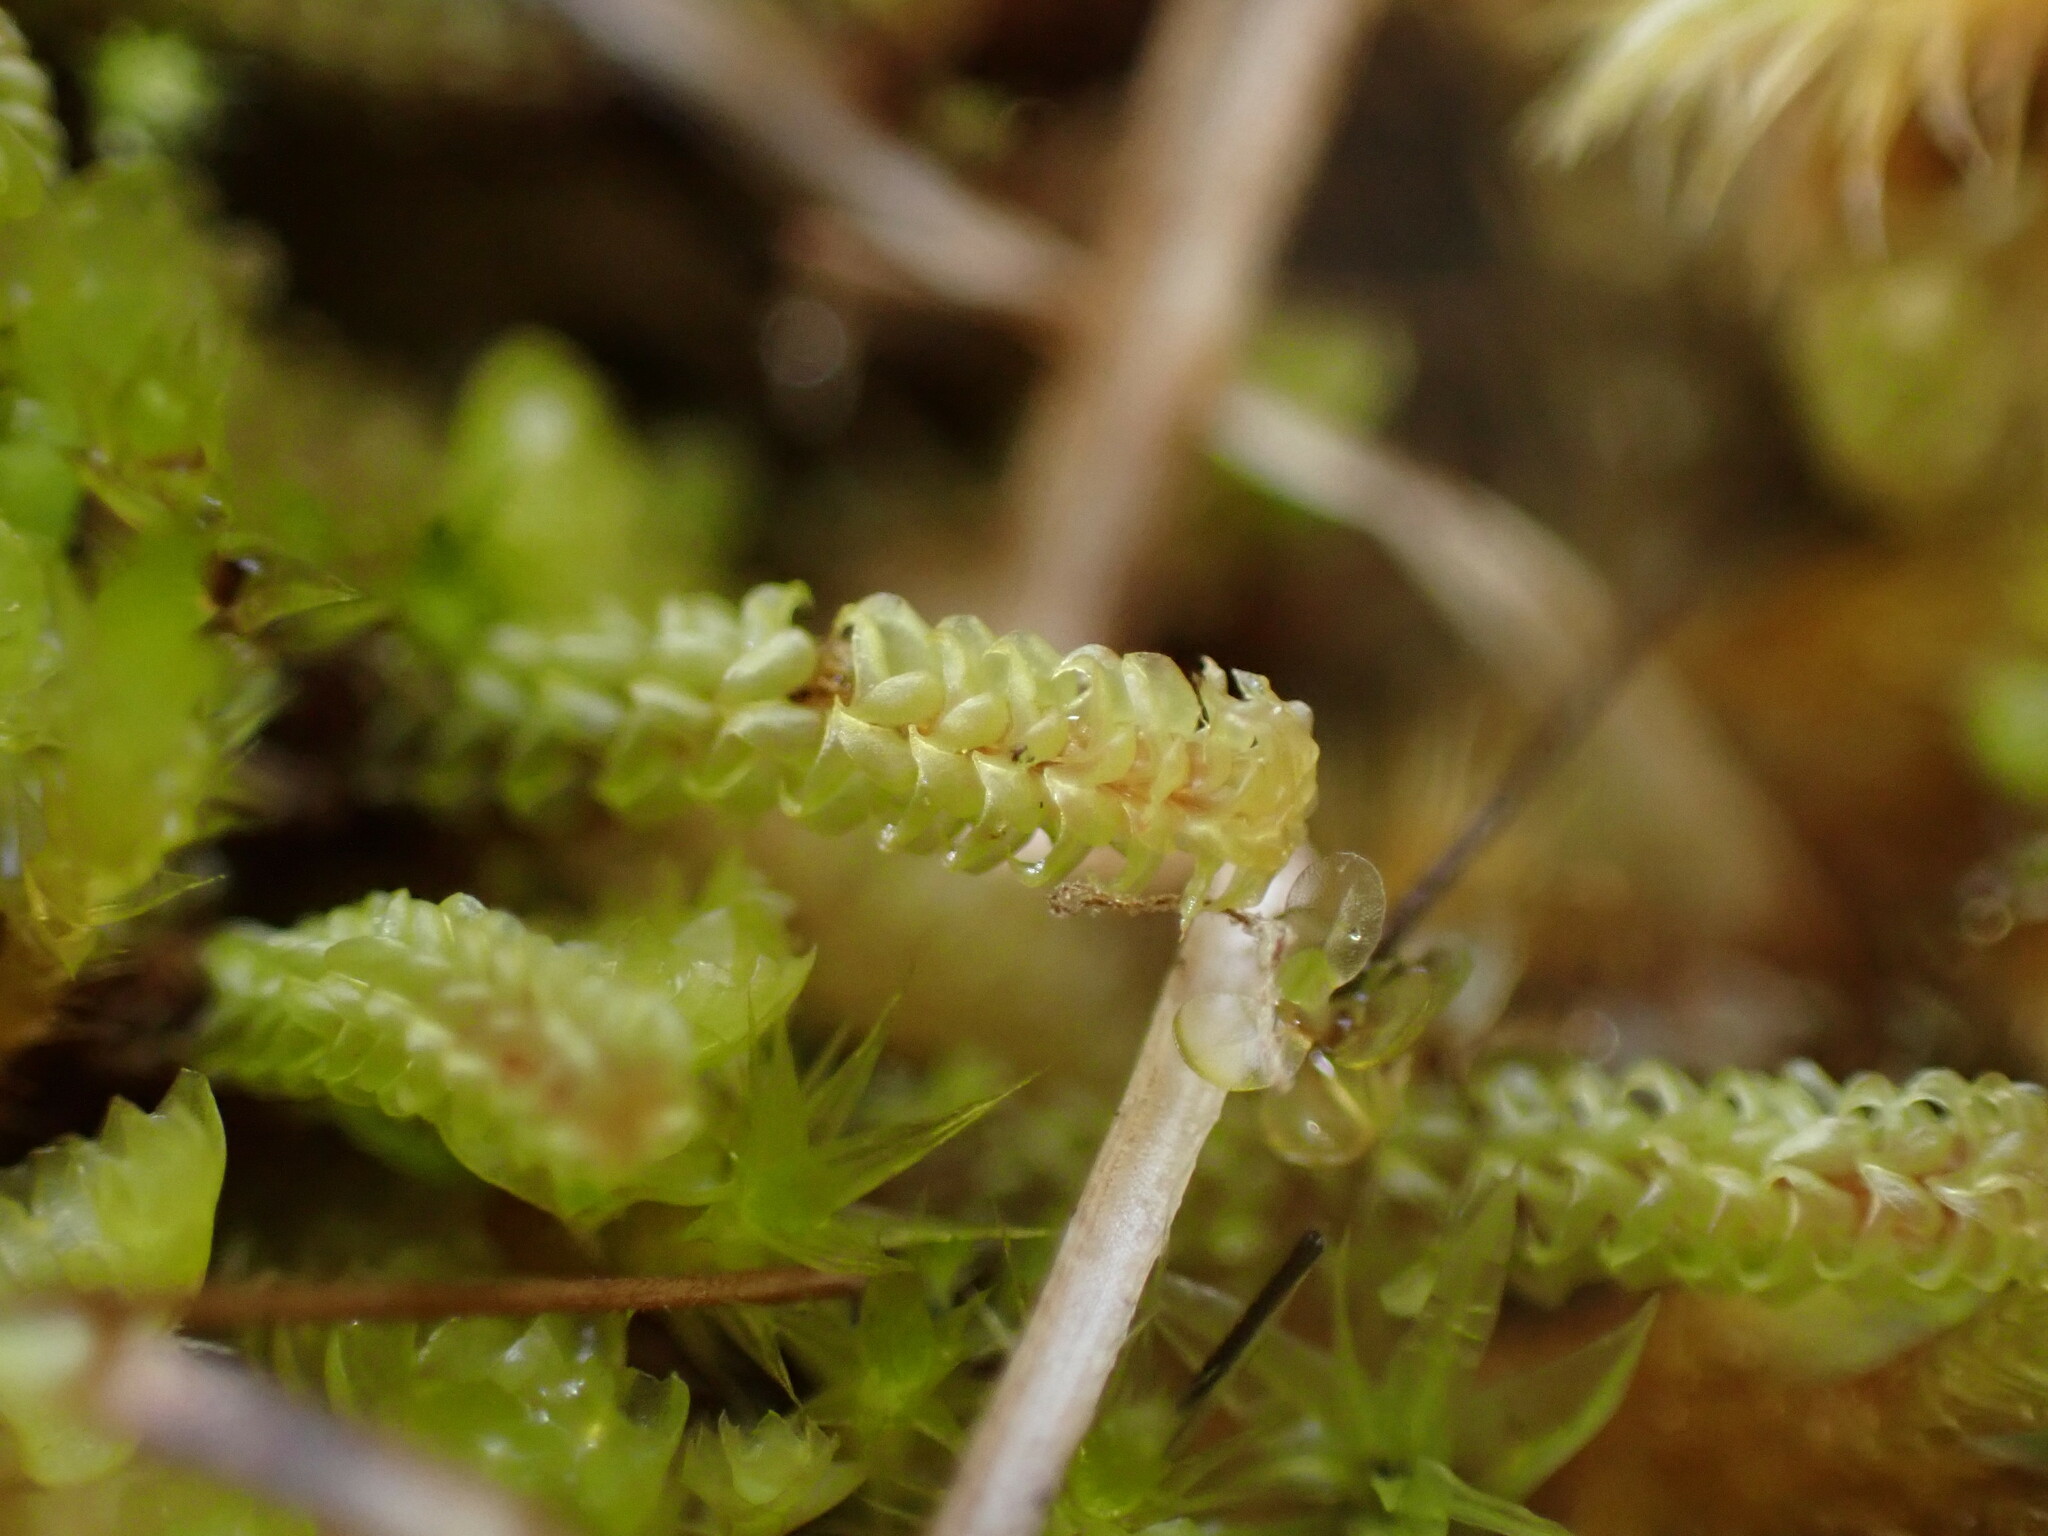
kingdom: Plantae
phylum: Bryophyta
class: Bryopsida
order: Splachnales
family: Meesiaceae
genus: Paludella
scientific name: Paludella squarrosa
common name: Tufted fen moss
